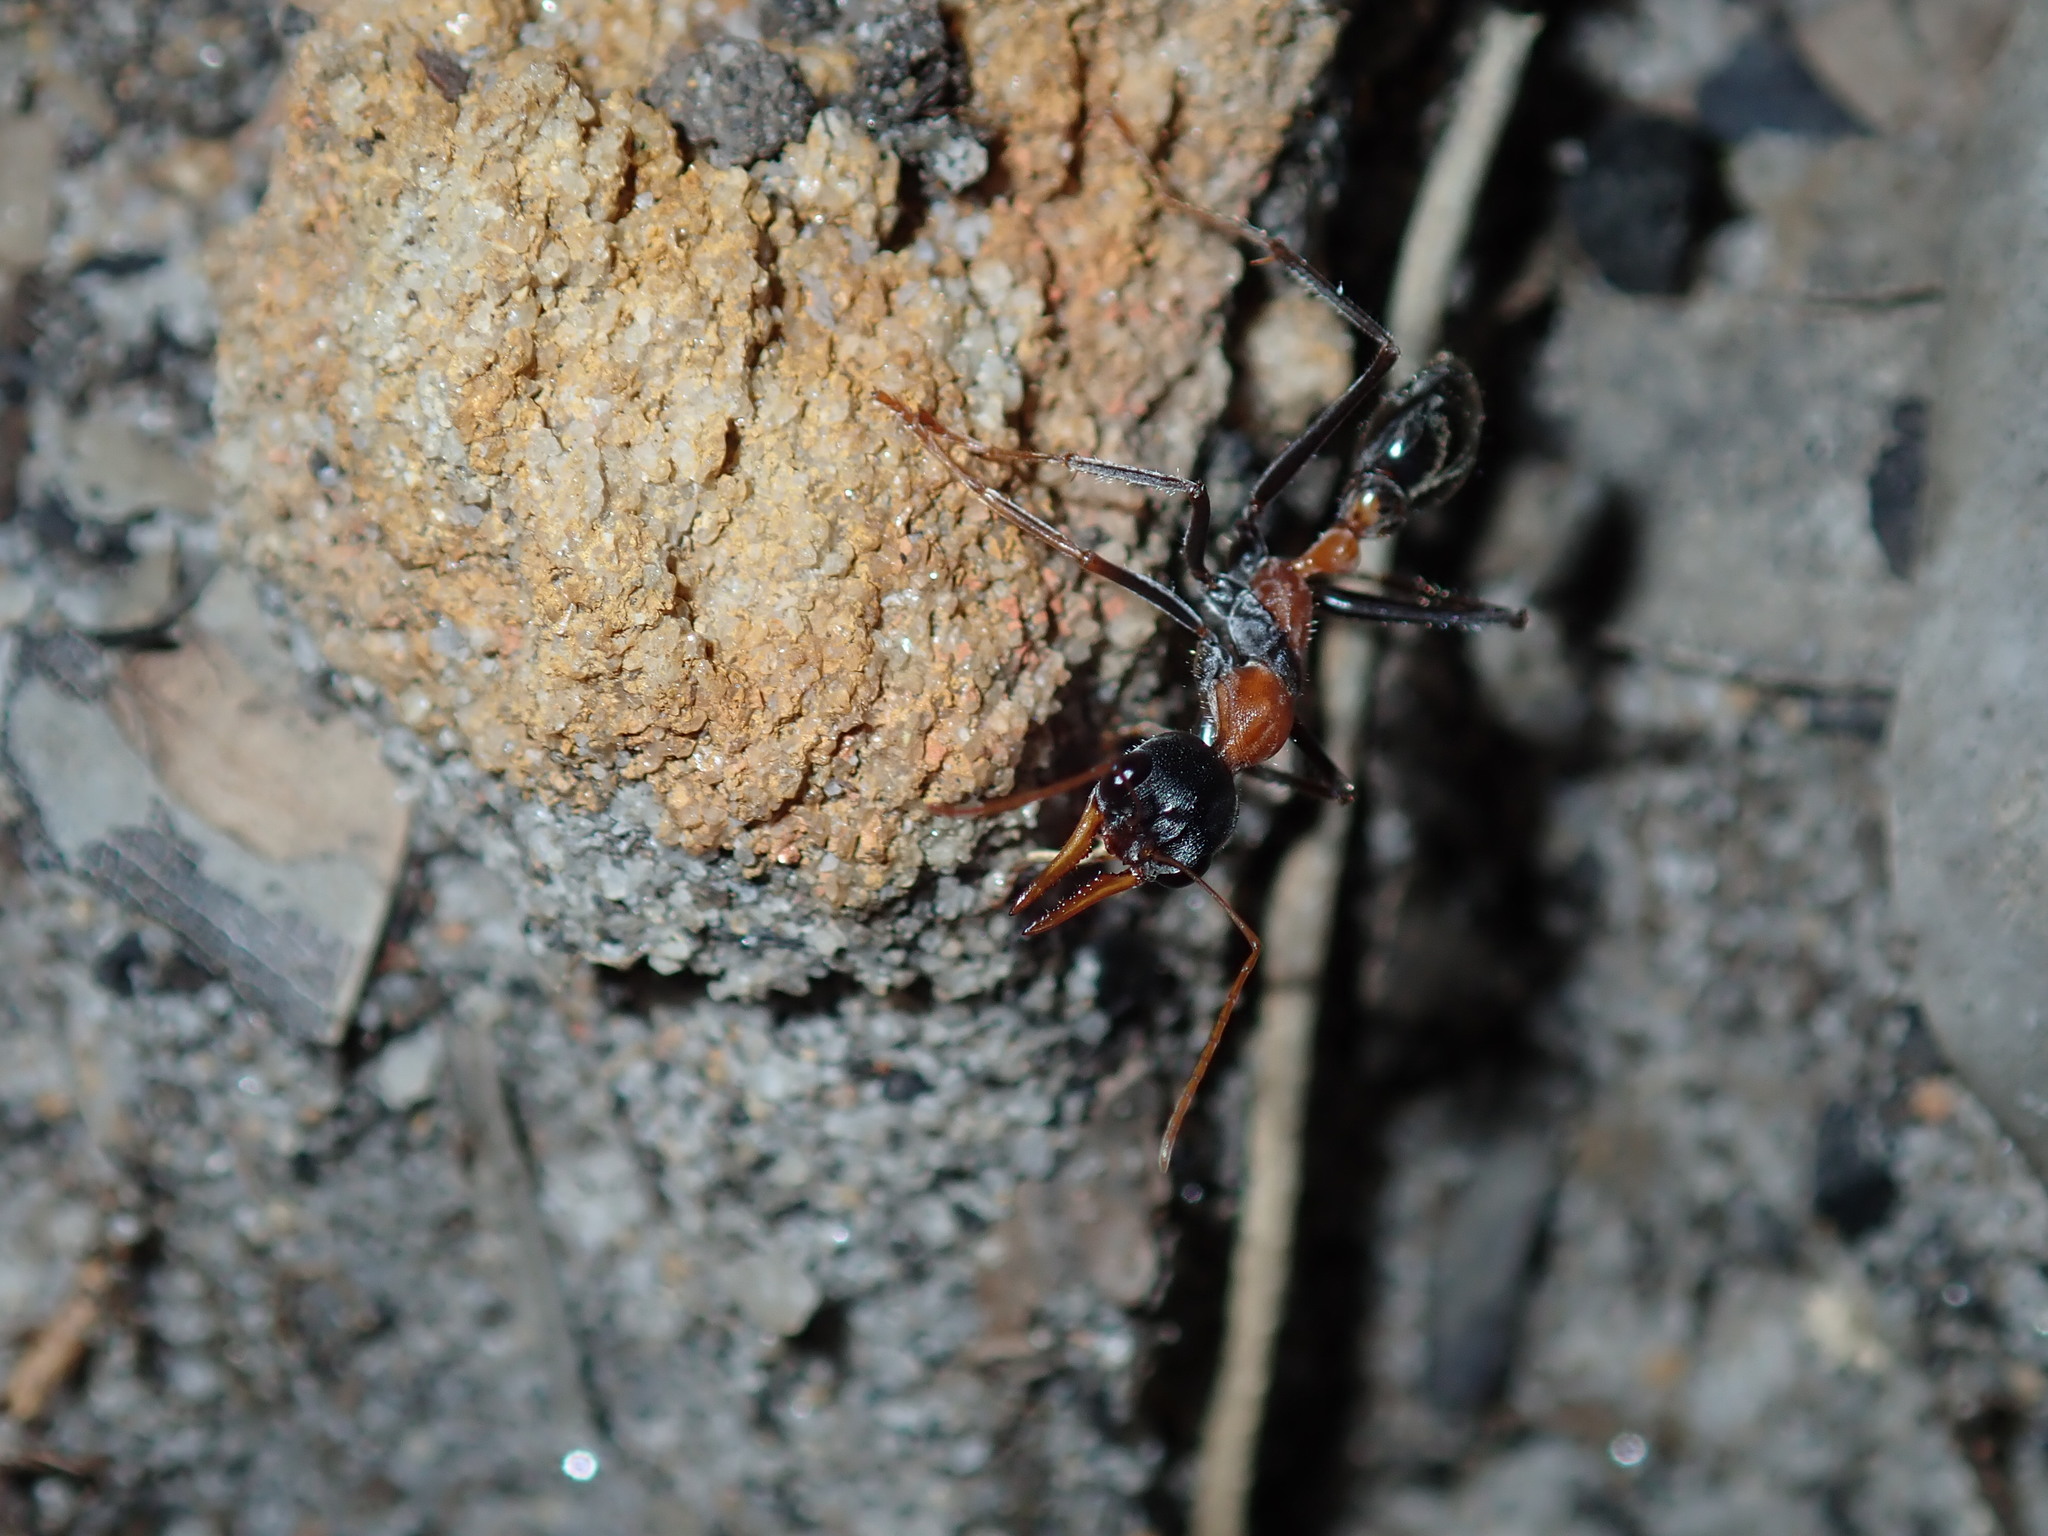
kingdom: Animalia
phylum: Arthropoda
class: Insecta
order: Hymenoptera
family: Formicidae
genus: Myrmecia
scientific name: Myrmecia nigrocincta
